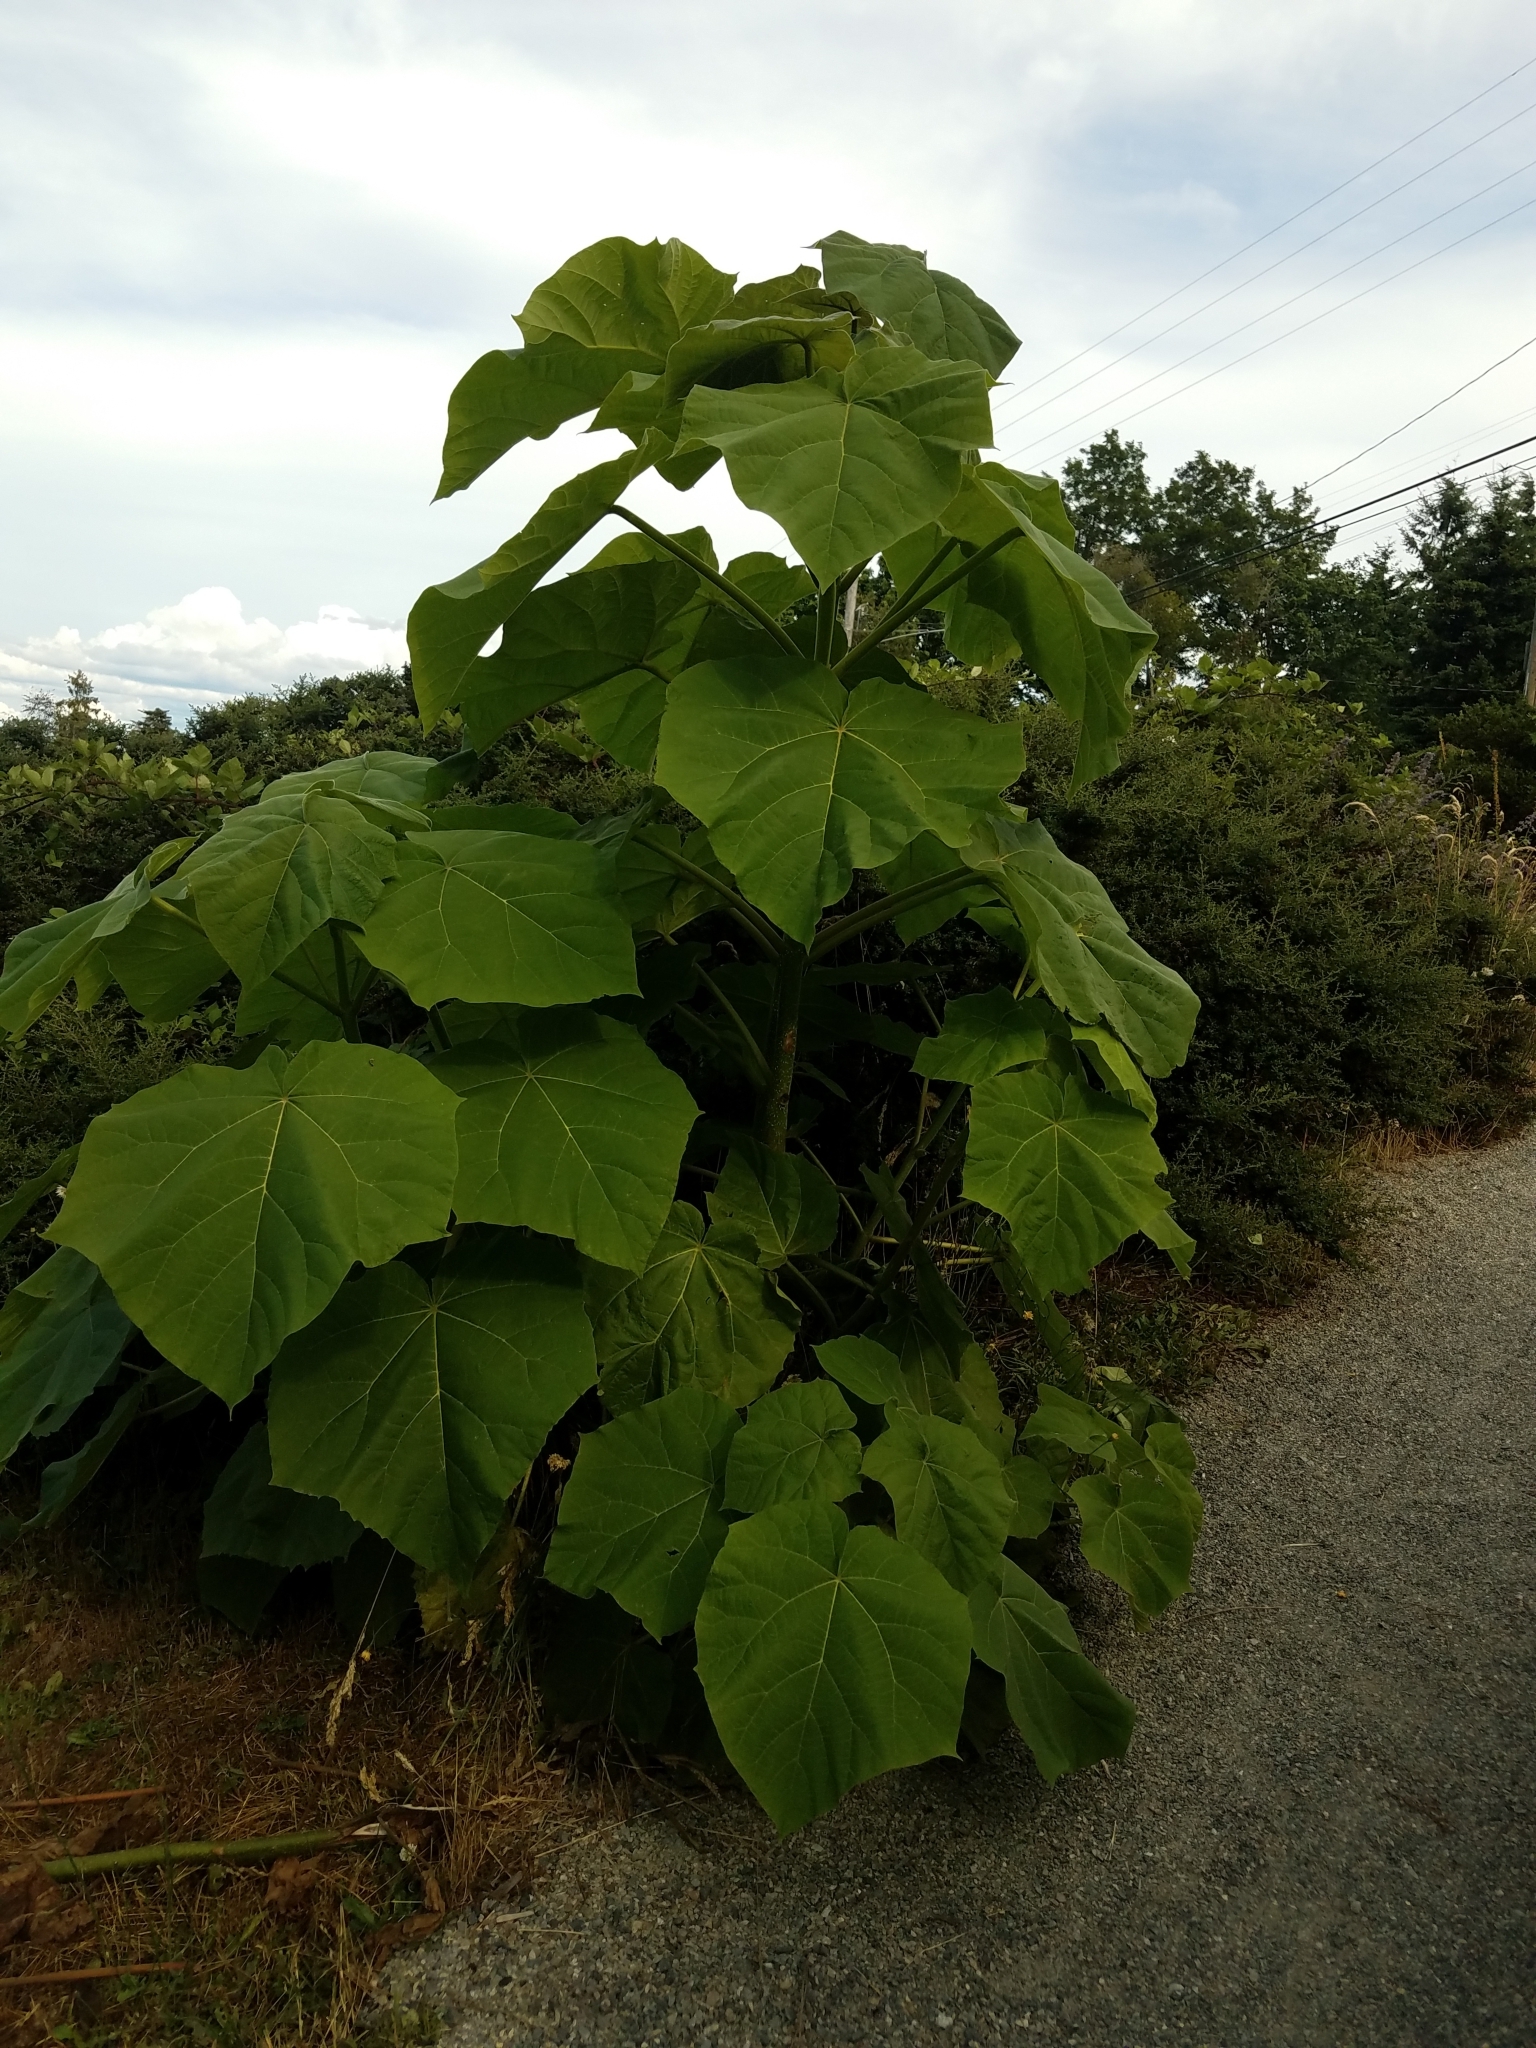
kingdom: Plantae
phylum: Tracheophyta
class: Magnoliopsida
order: Lamiales
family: Paulowniaceae
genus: Paulownia
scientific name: Paulownia tomentosa
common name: Foxglove-tree
